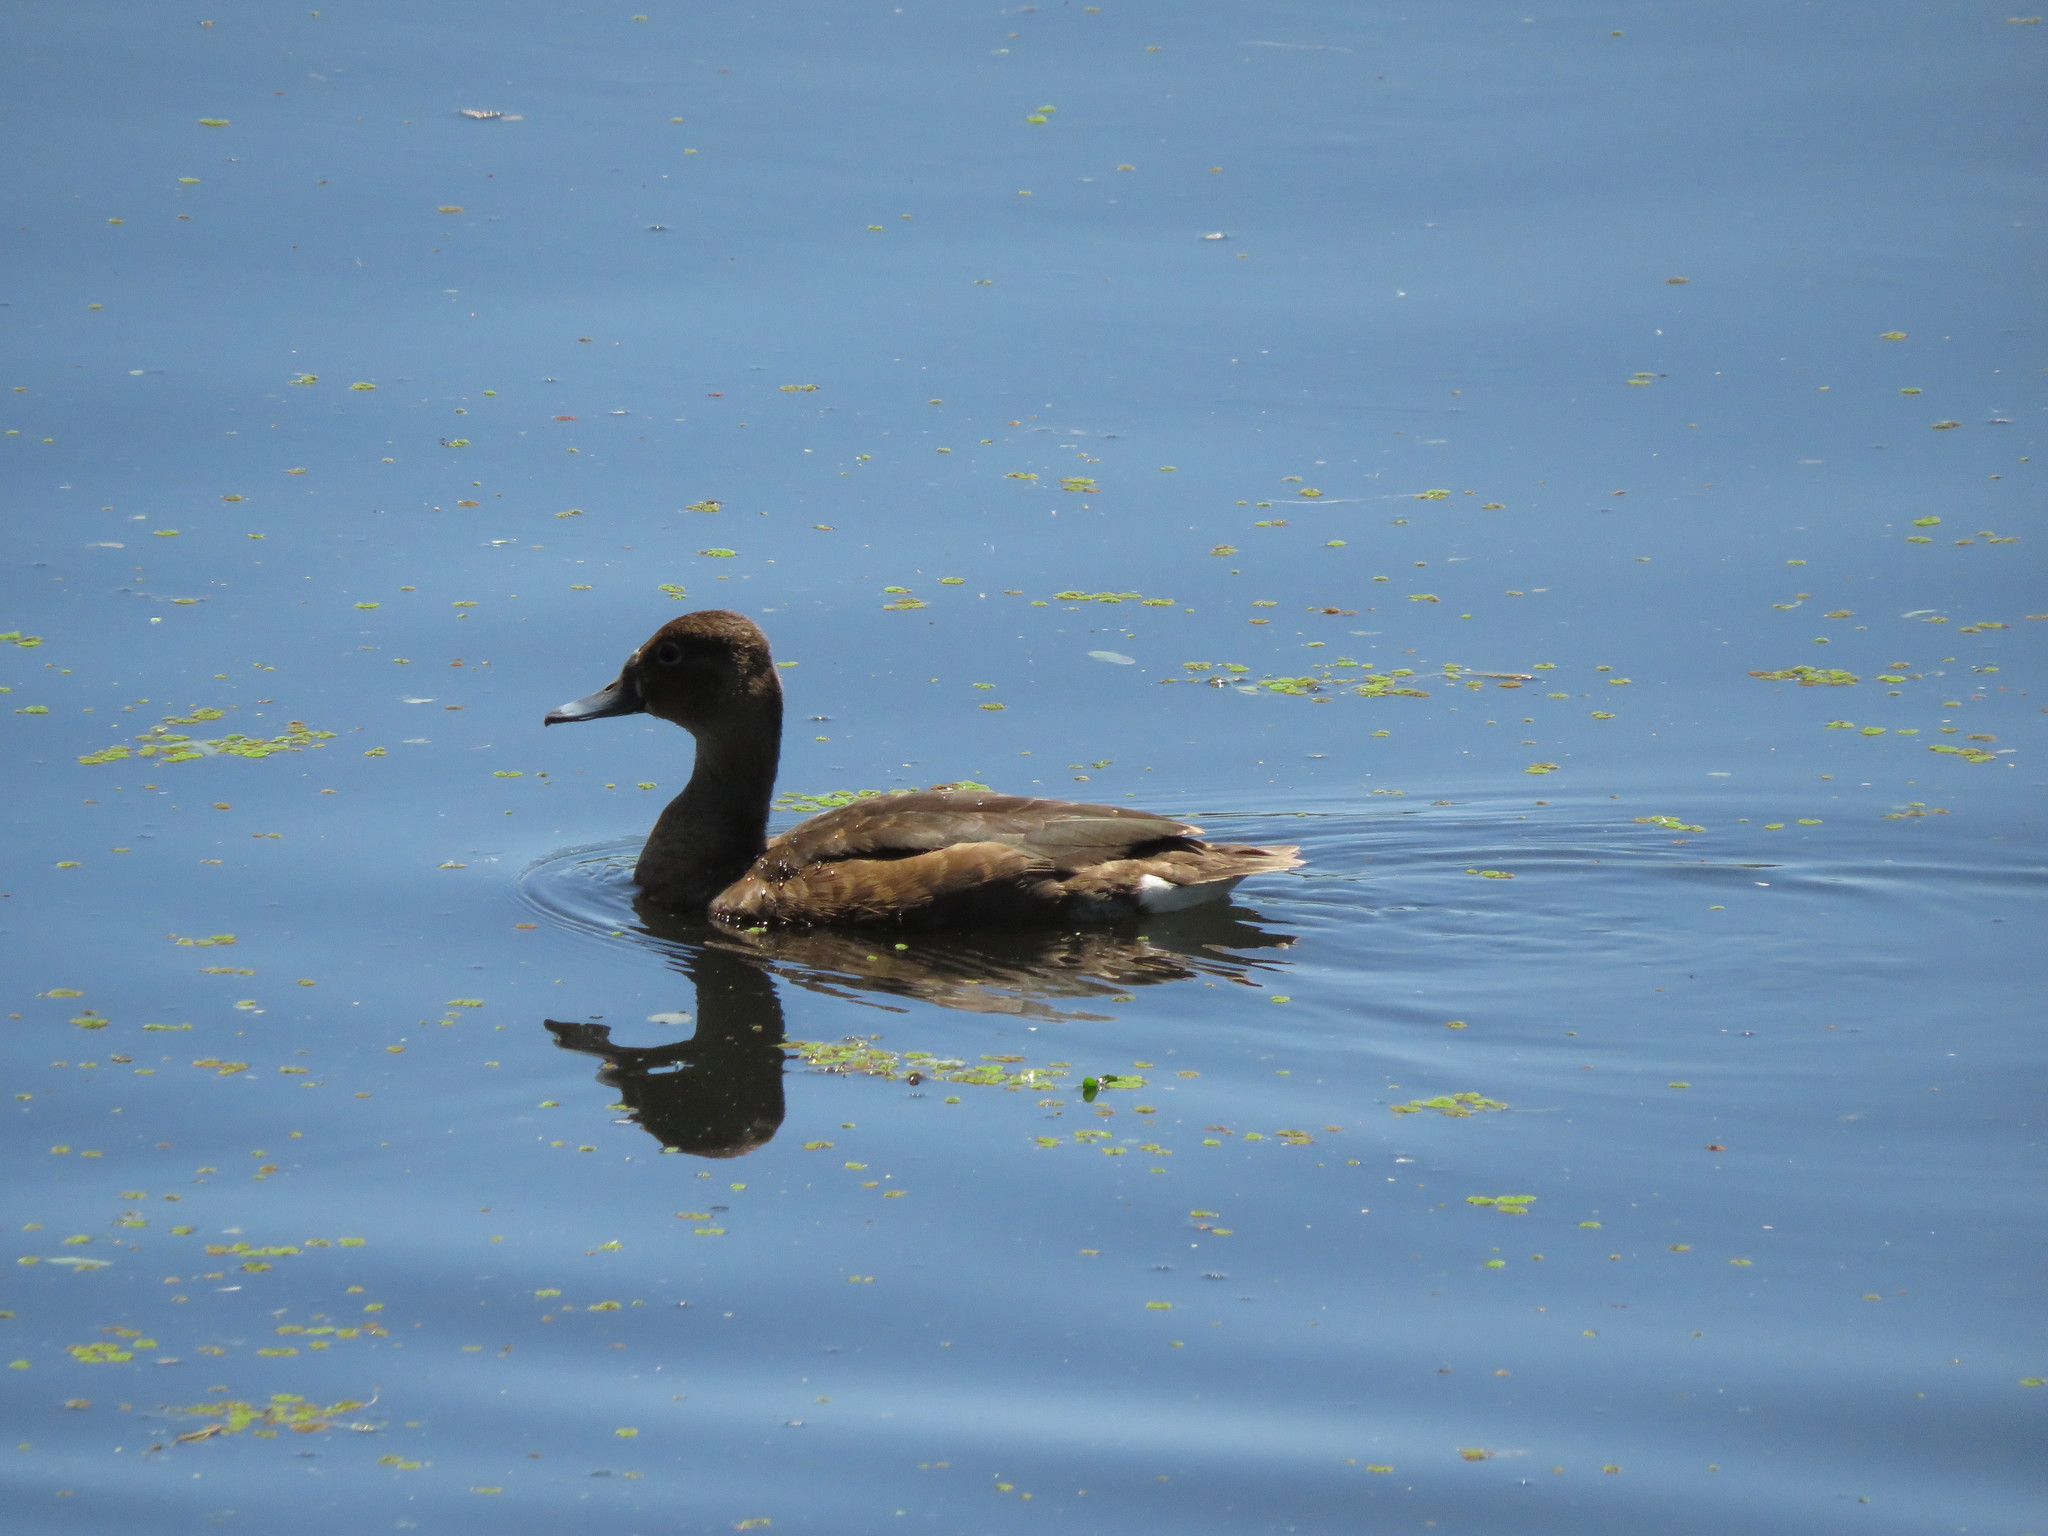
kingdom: Animalia
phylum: Chordata
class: Aves
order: Anseriformes
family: Anatidae
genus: Netta
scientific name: Netta peposaca
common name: Rosy-billed pochard
